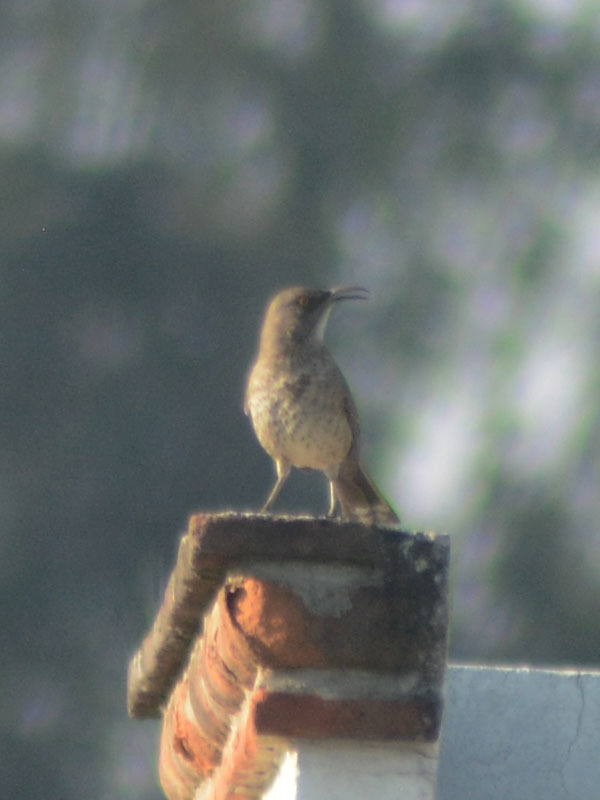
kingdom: Animalia
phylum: Chordata
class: Aves
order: Passeriformes
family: Mimidae
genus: Toxostoma
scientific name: Toxostoma curvirostre
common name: Curve-billed thrasher
